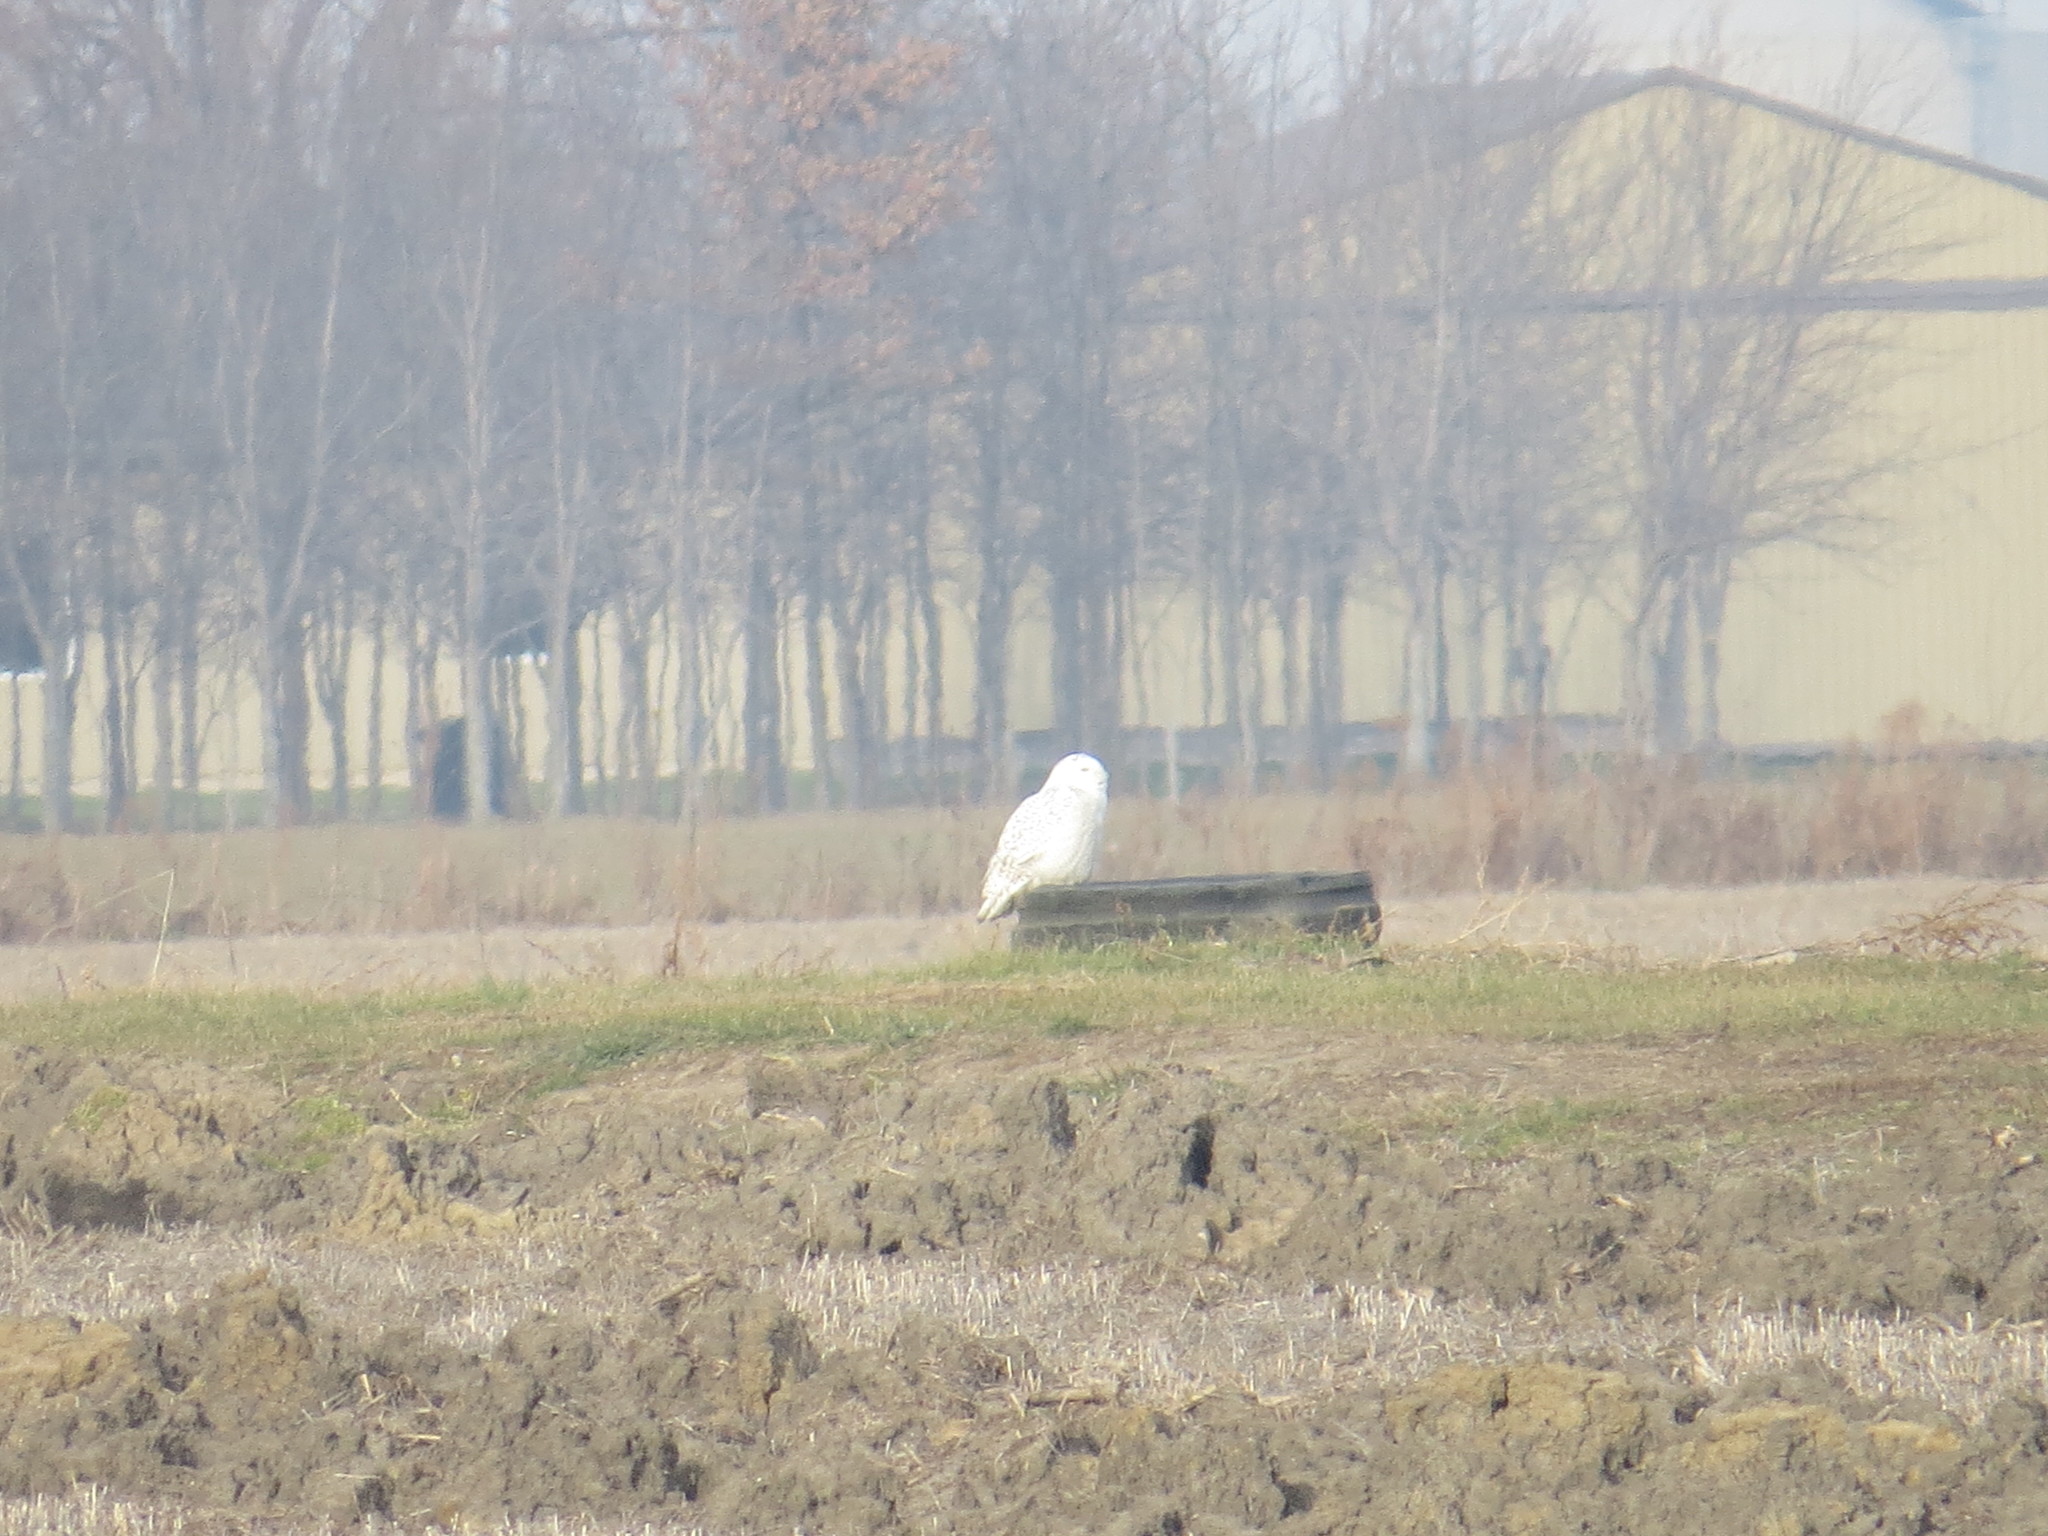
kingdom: Animalia
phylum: Chordata
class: Aves
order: Strigiformes
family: Strigidae
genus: Bubo
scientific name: Bubo scandiacus
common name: Snowy owl
